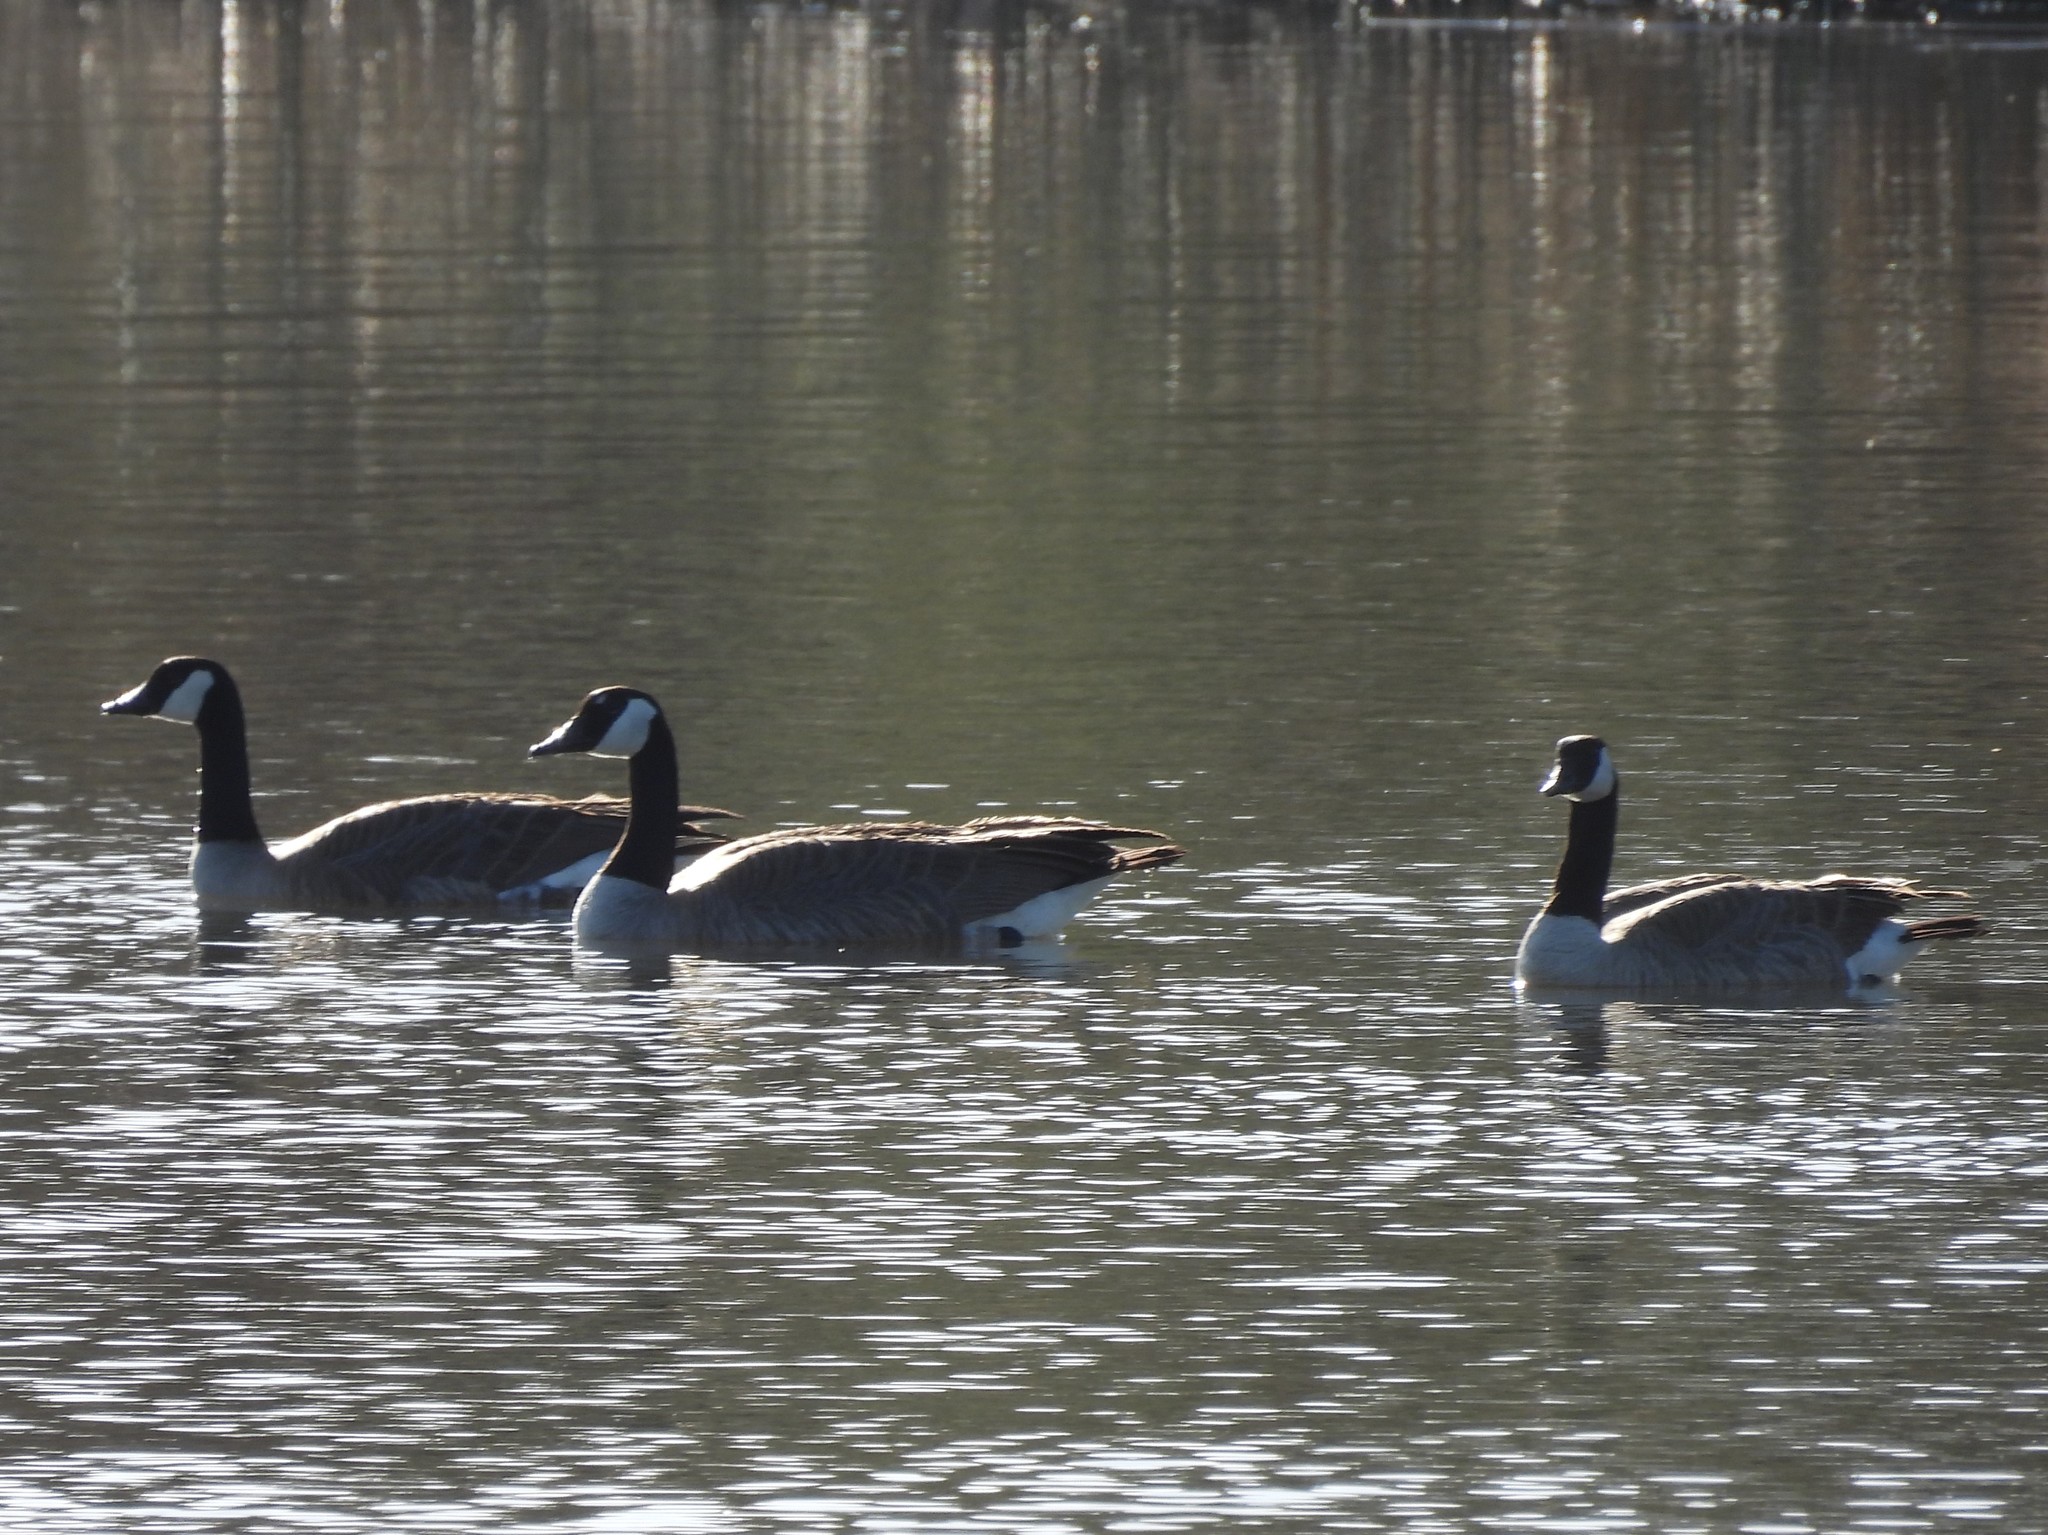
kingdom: Animalia
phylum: Chordata
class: Aves
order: Anseriformes
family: Anatidae
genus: Branta
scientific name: Branta canadensis
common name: Canada goose
